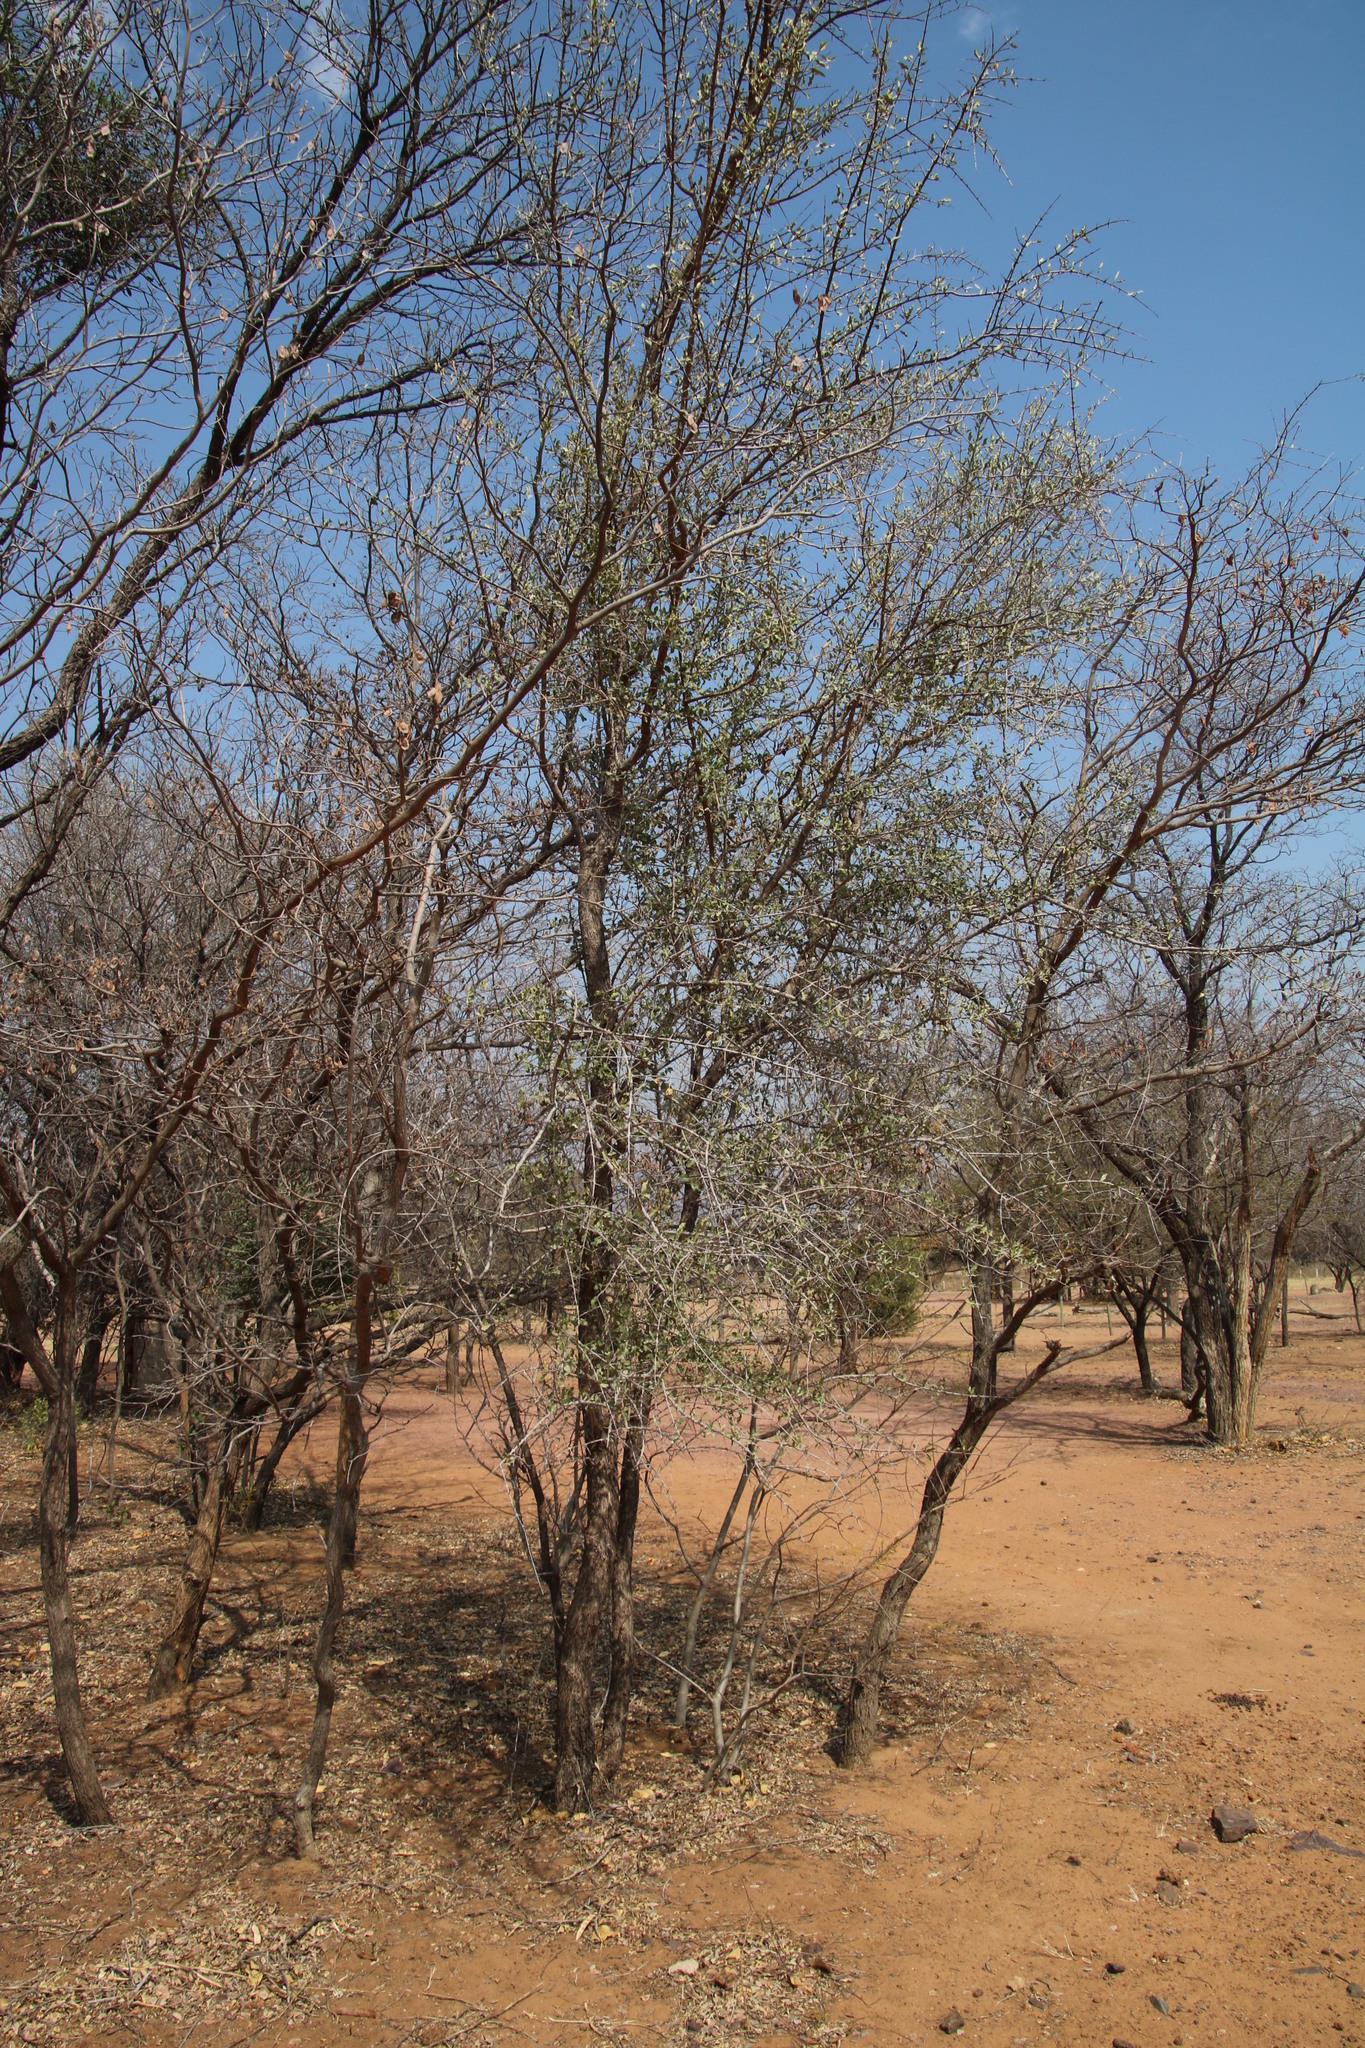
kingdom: Plantae
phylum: Tracheophyta
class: Magnoliopsida
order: Myrtales
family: Combretaceae
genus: Combretum
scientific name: Combretum imberbe
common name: Leadwood
